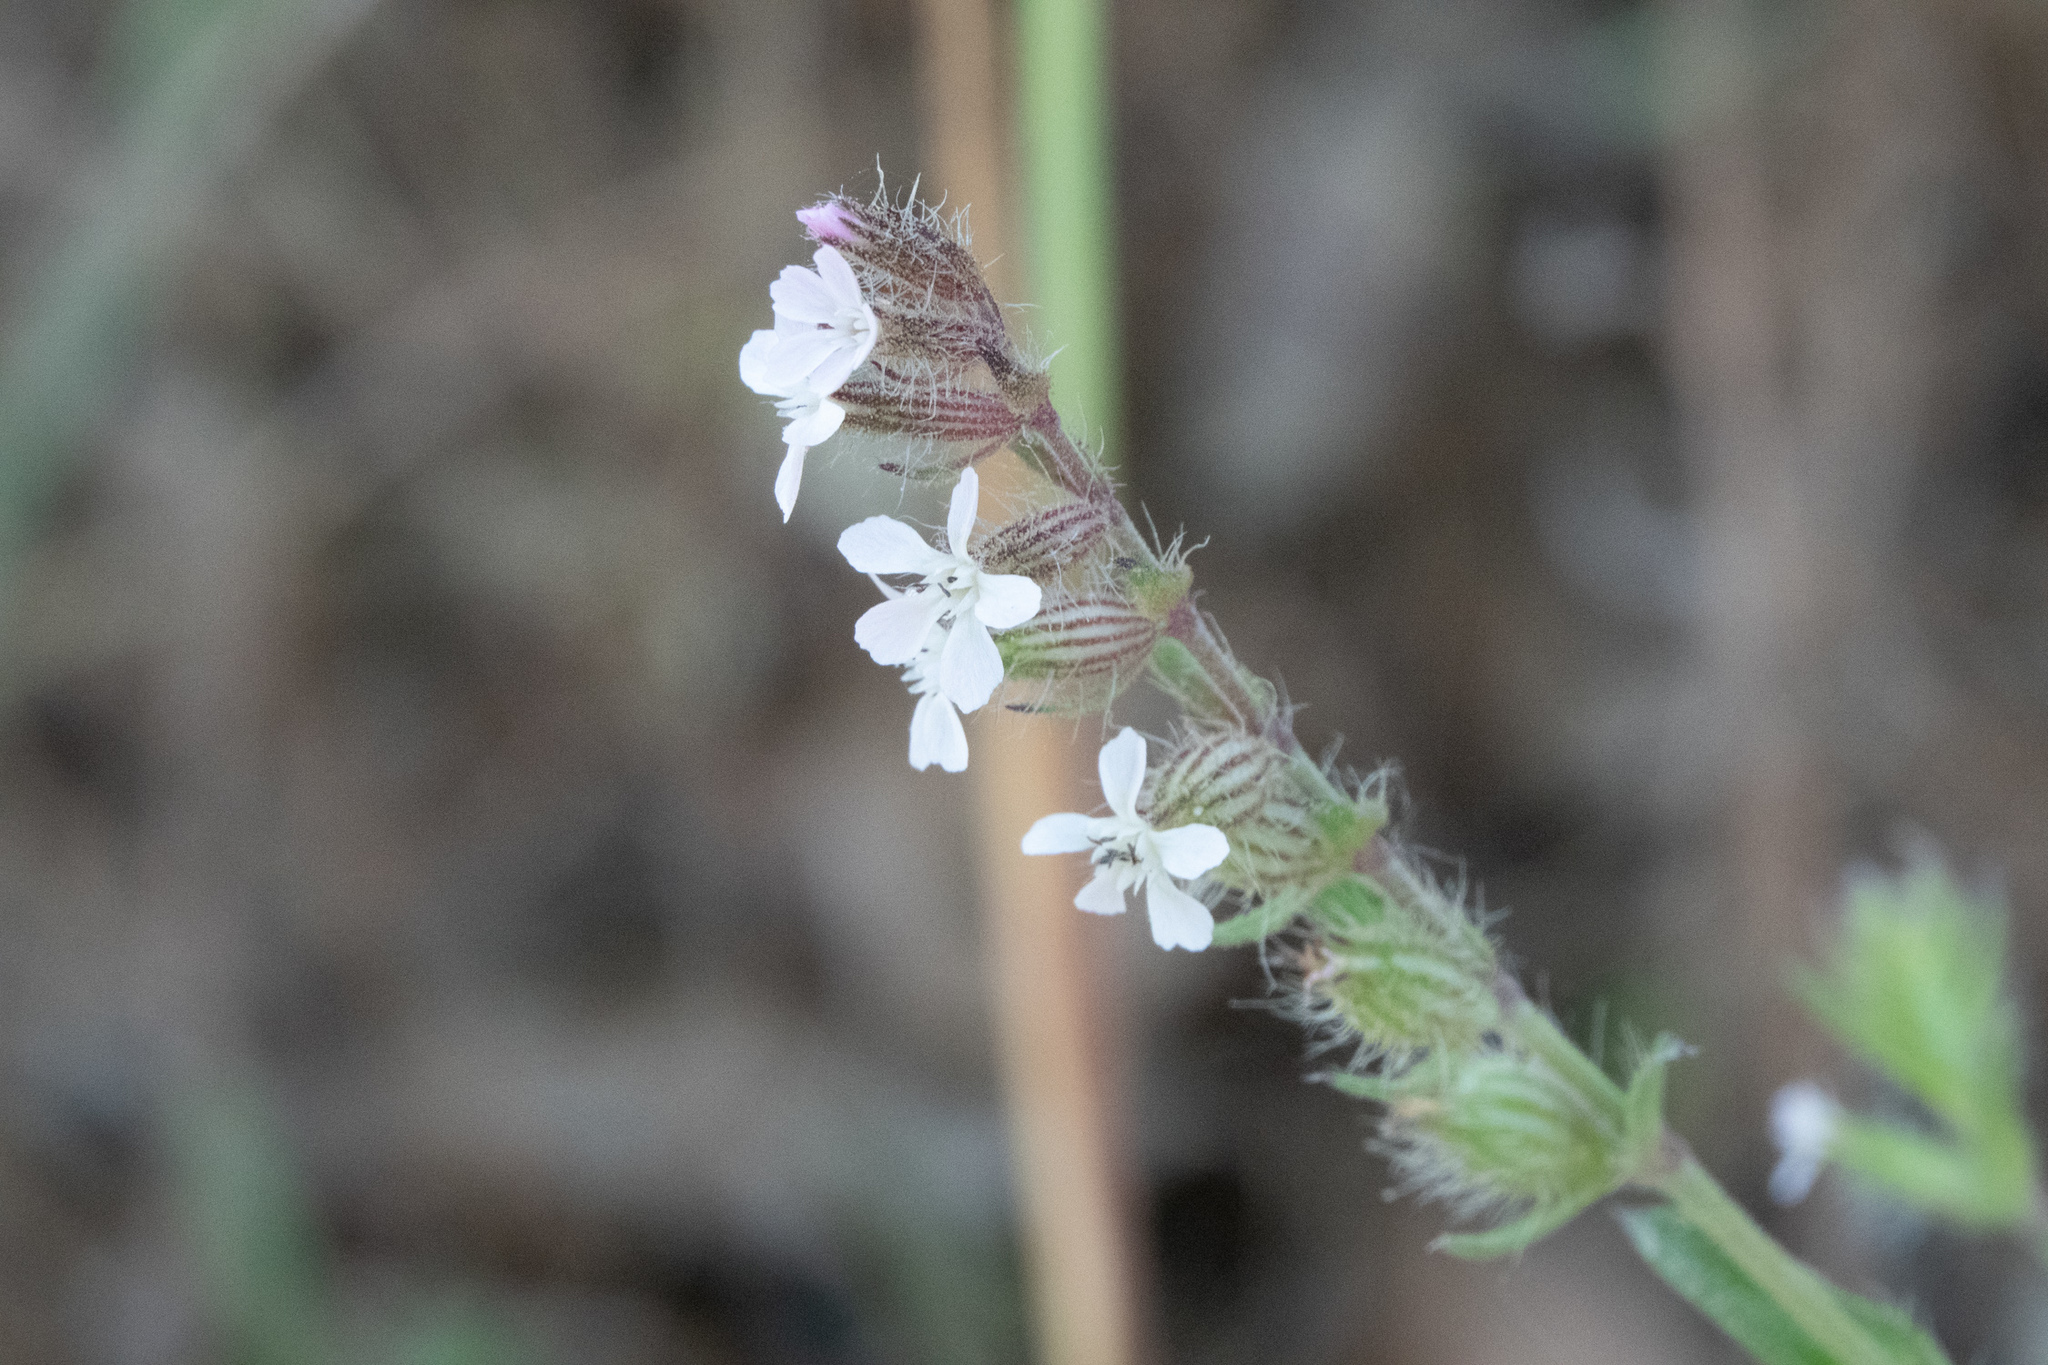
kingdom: Plantae
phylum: Tracheophyta
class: Magnoliopsida
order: Caryophyllales
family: Caryophyllaceae
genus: Silene
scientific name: Silene gallica
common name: Small-flowered catchfly
